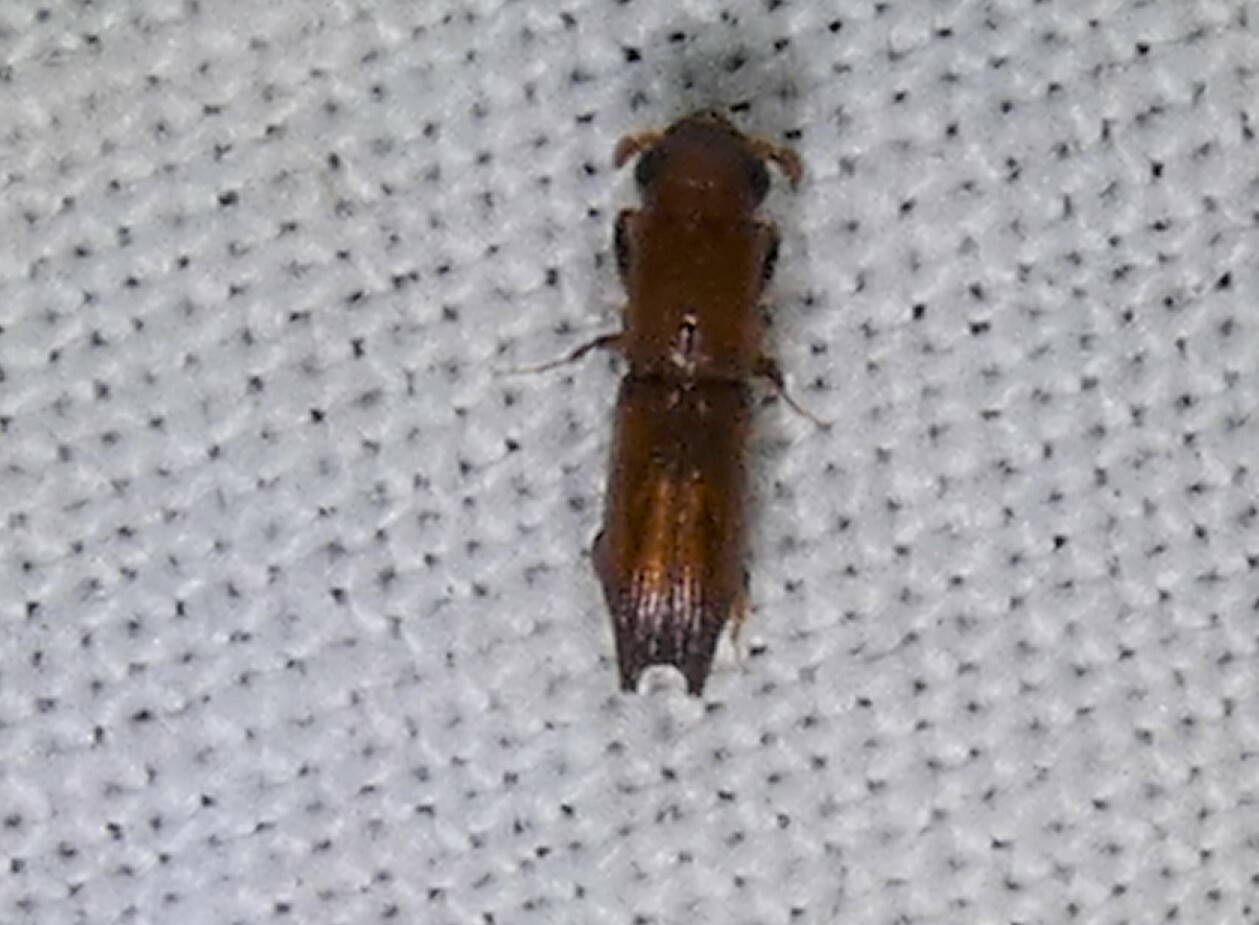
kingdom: Animalia
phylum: Arthropoda
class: Insecta
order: Coleoptera
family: Curculionidae
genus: Euplatypus
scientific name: Euplatypus compositus
